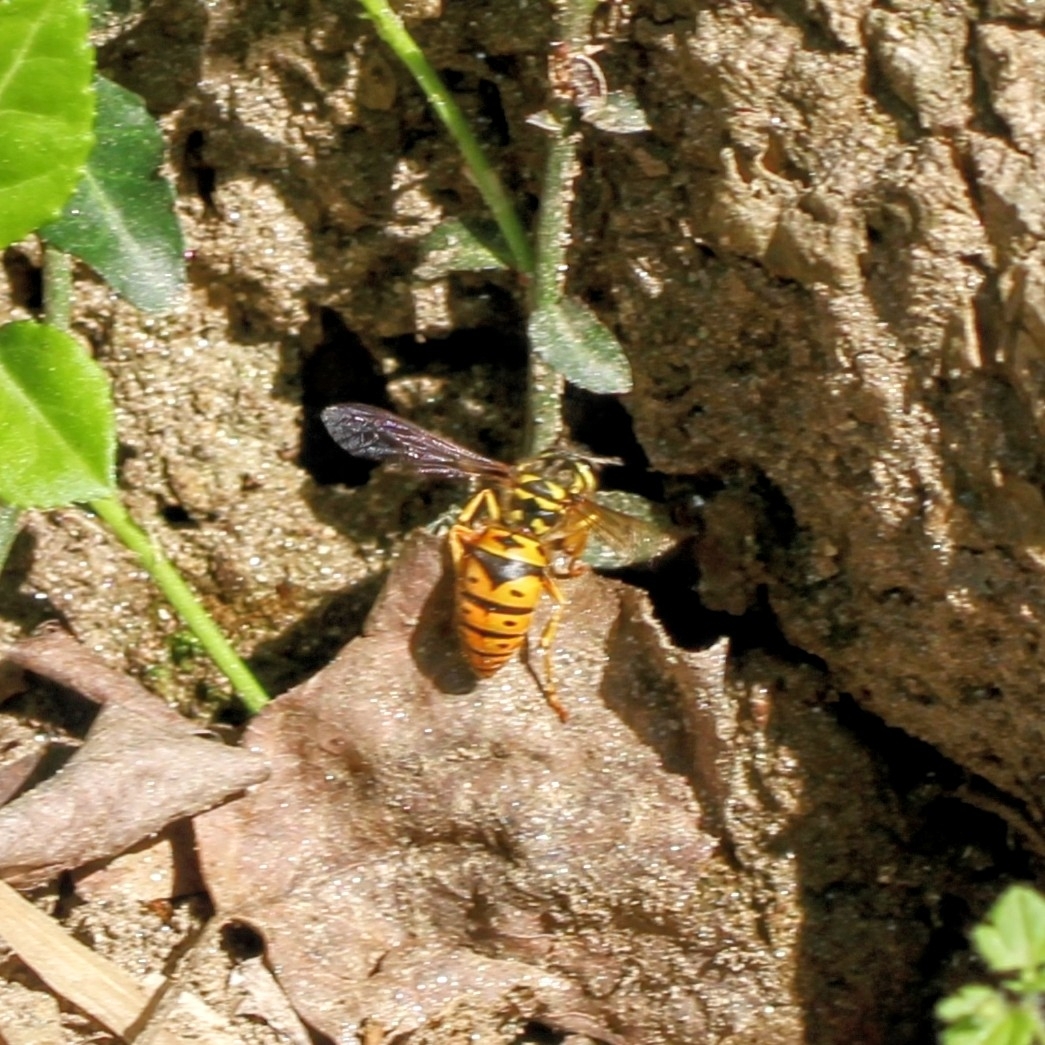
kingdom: Animalia
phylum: Arthropoda
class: Insecta
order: Hymenoptera
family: Vespidae
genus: Vespula
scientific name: Vespula maculifrons
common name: Eastern yellowjacket
